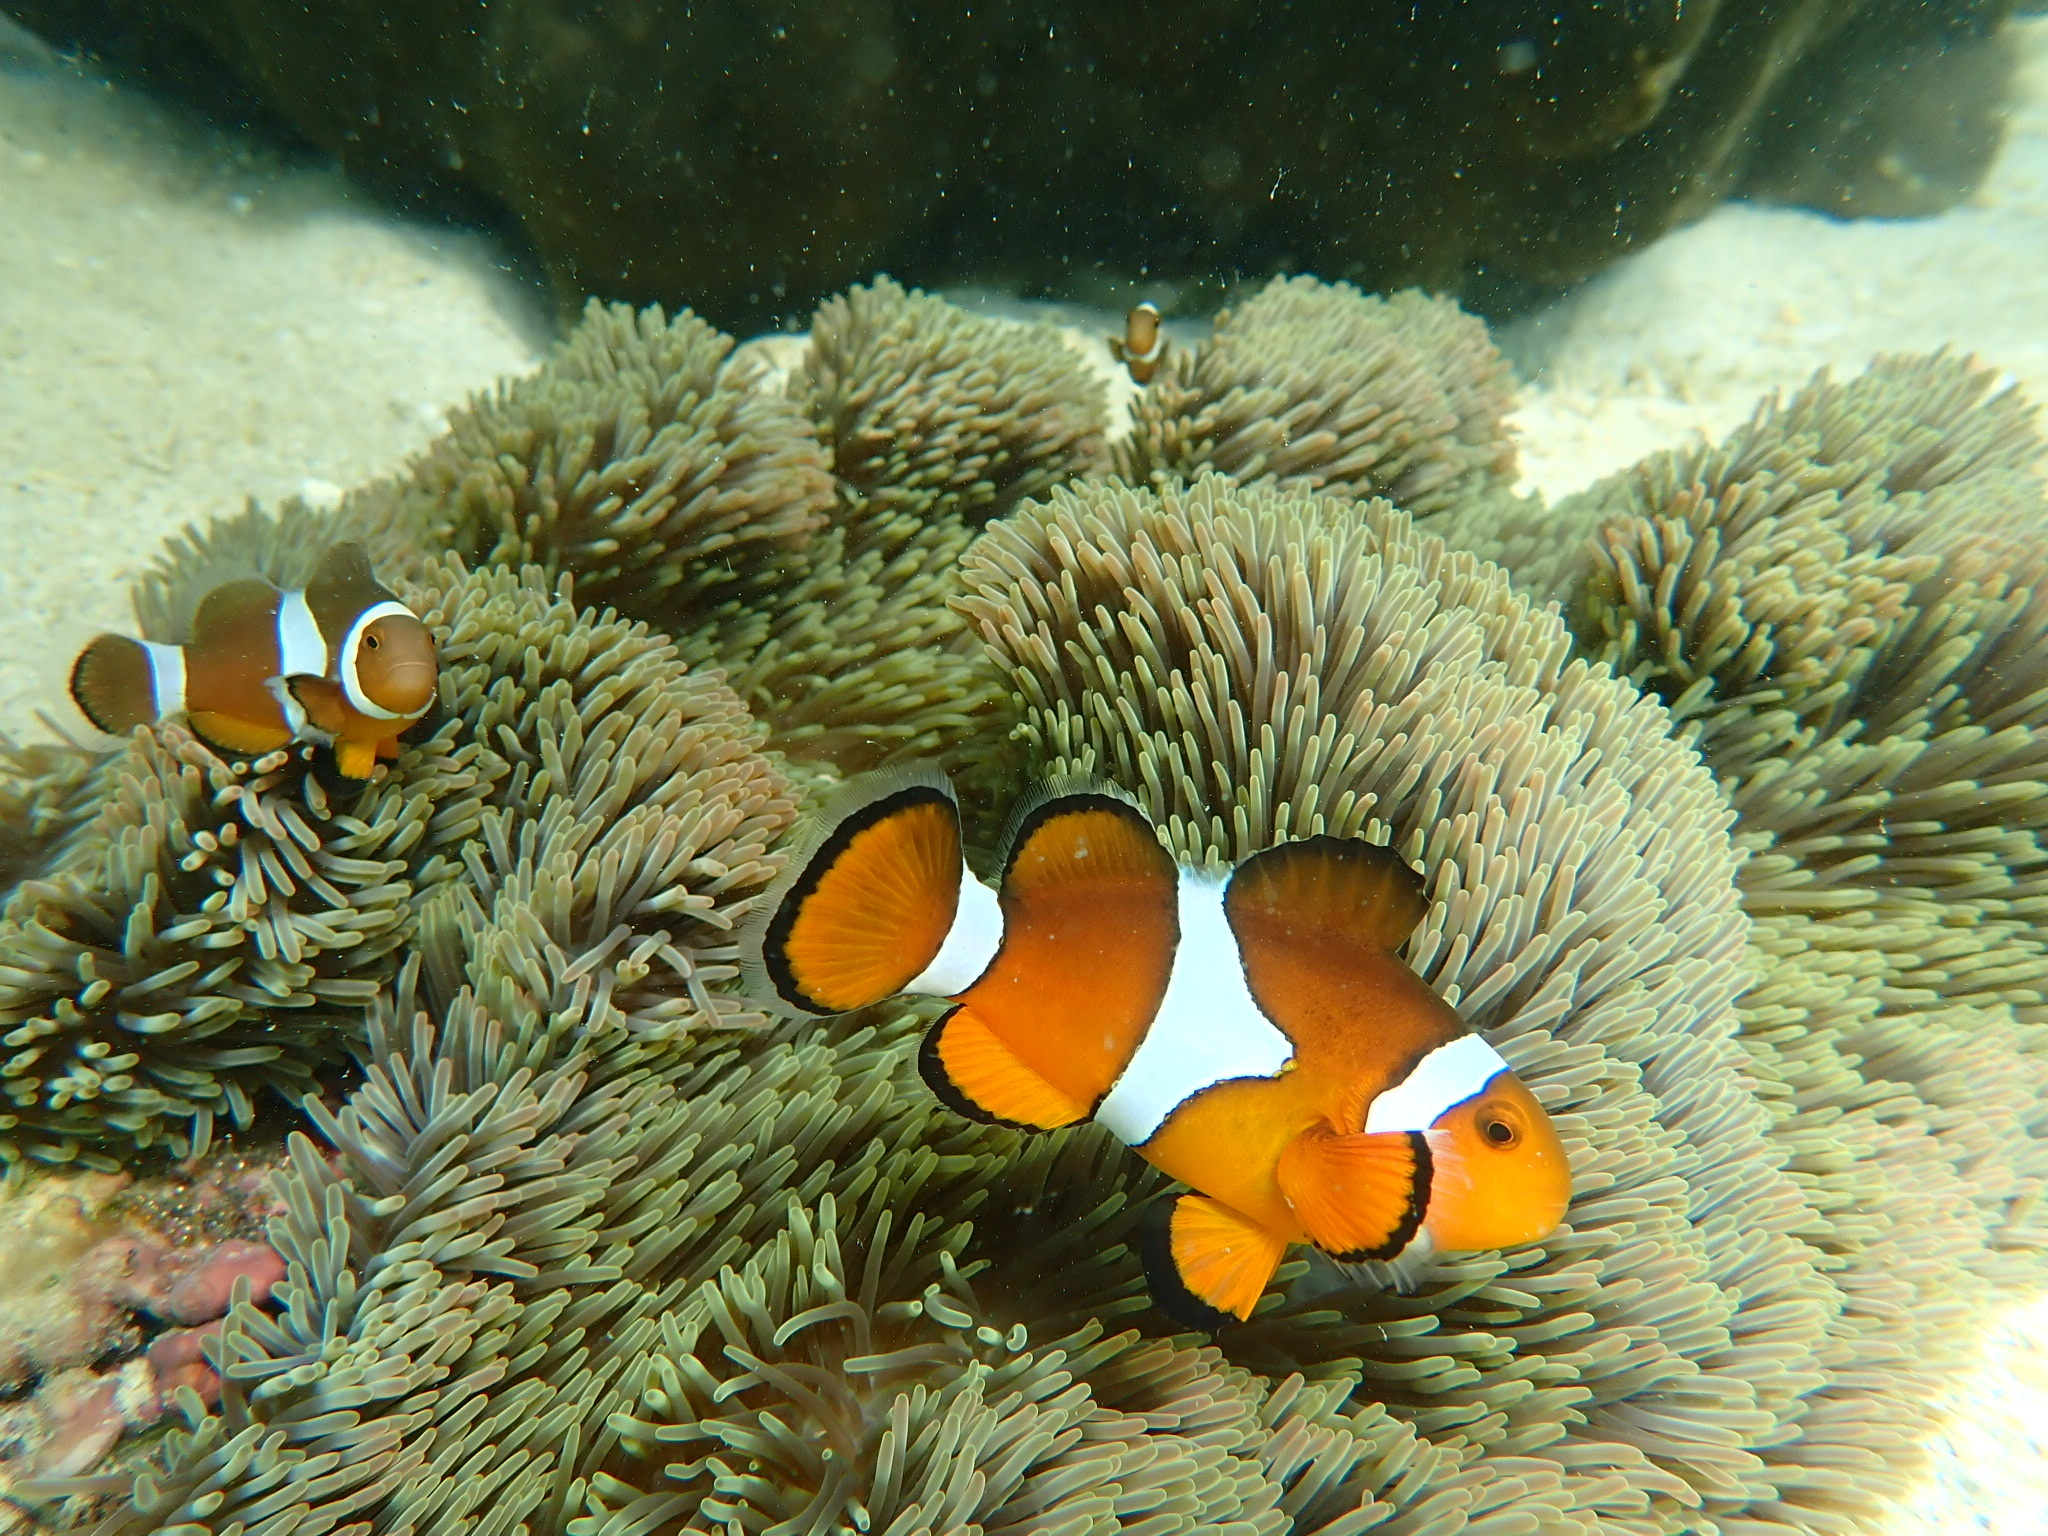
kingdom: Animalia
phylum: Chordata
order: Perciformes
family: Pomacentridae
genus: Amphiprion
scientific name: Amphiprion ocellaris
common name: Clown anemonefish
